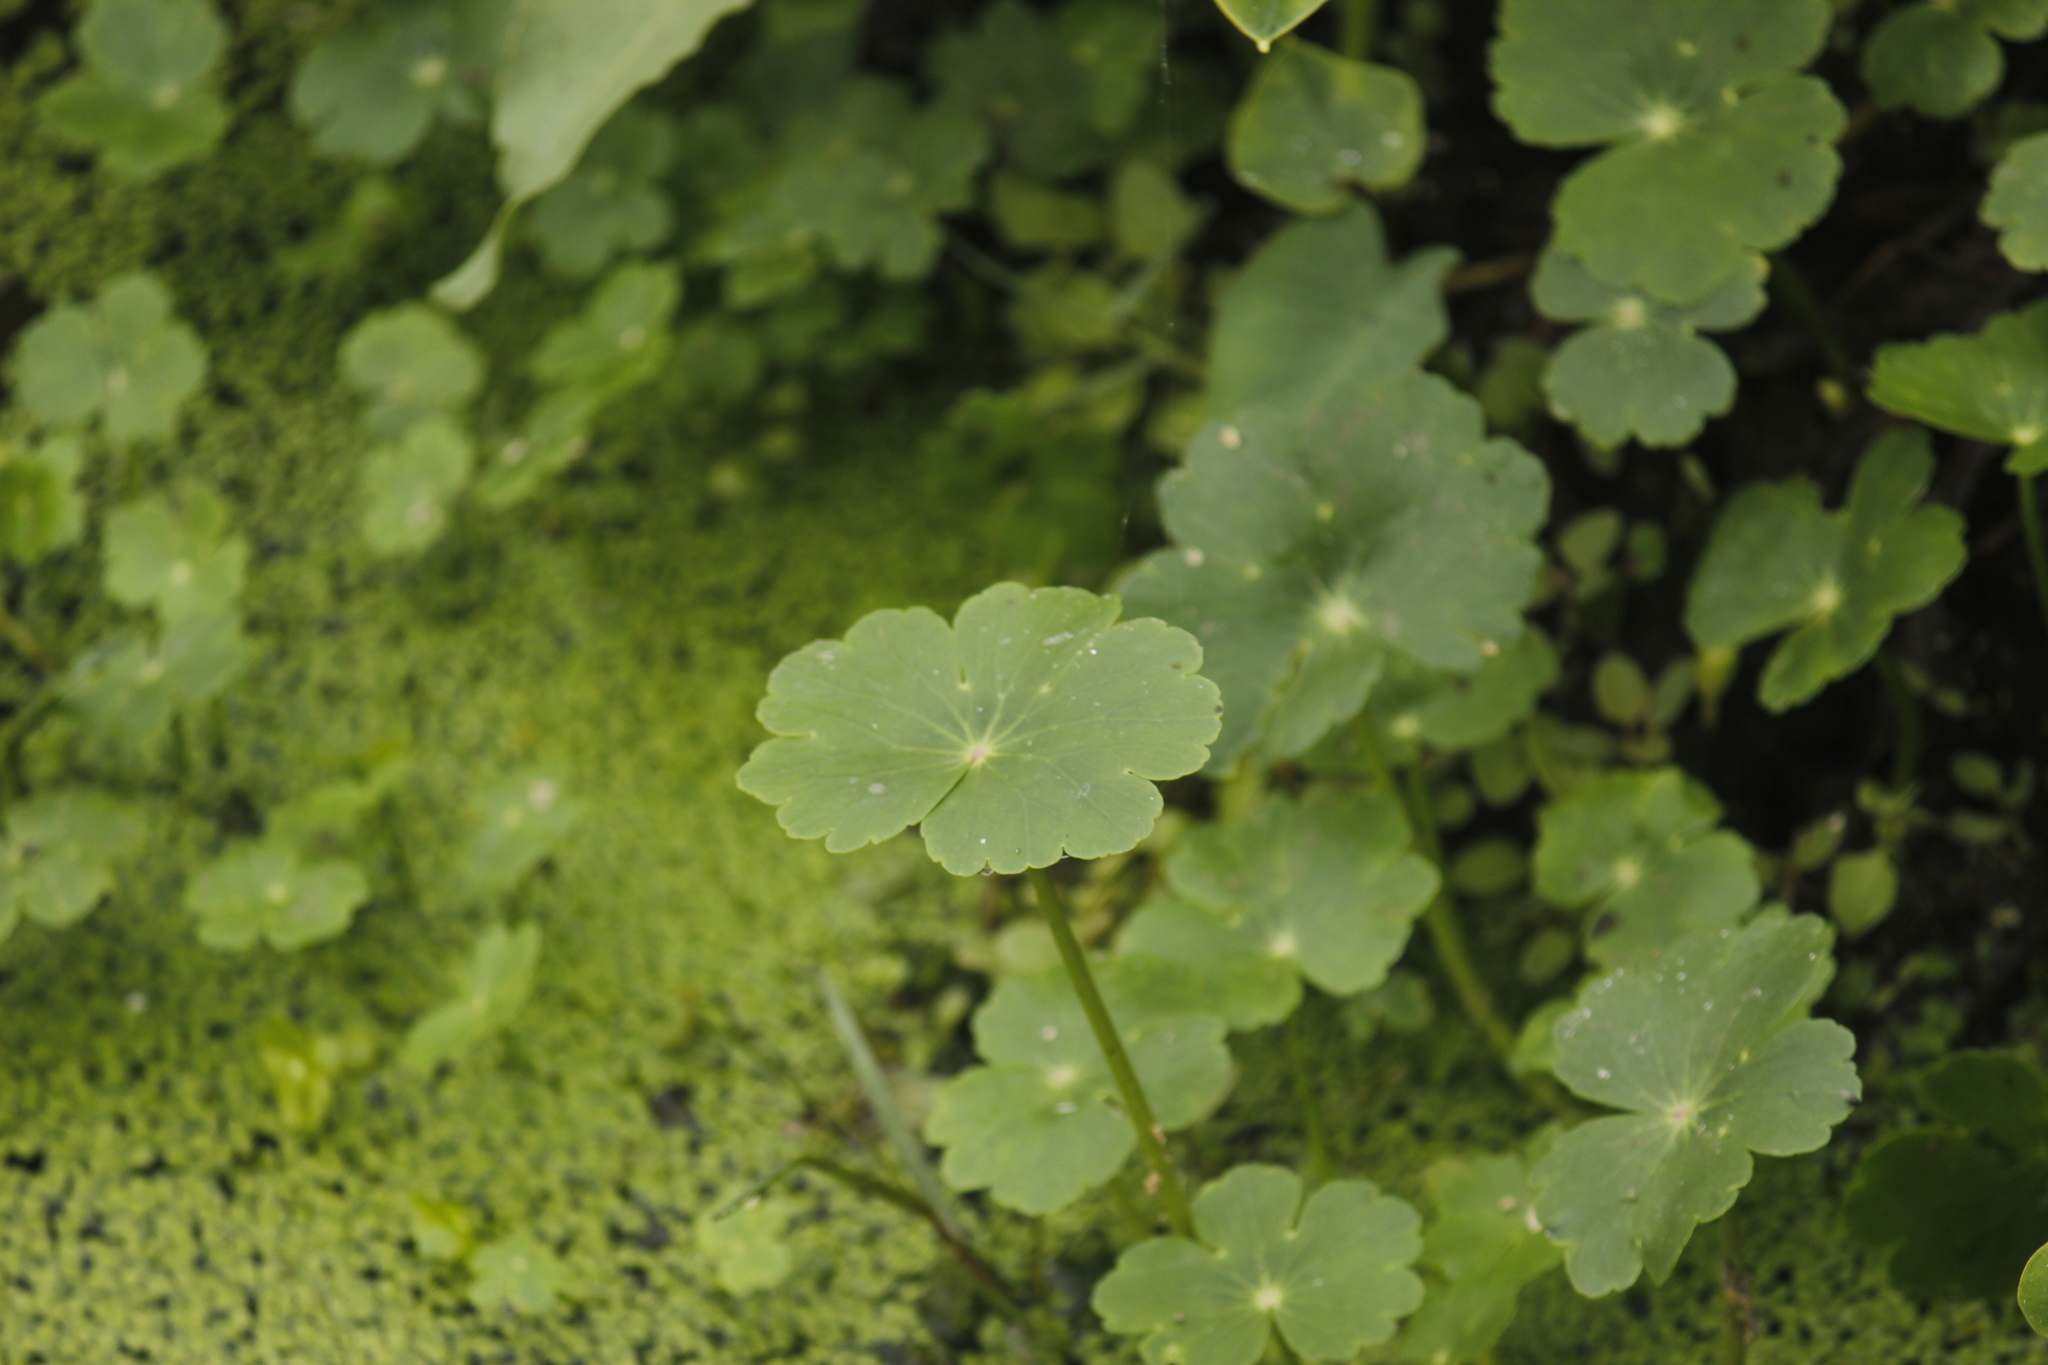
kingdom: Plantae
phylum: Tracheophyta
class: Magnoliopsida
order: Apiales
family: Araliaceae
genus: Hydrocotyle
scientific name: Hydrocotyle ranunculoides
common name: Floating pennywort
